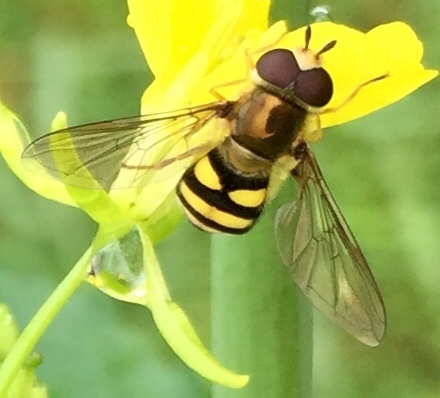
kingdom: Animalia
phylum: Arthropoda
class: Insecta
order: Diptera
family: Syrphidae
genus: Eupeodes
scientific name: Eupeodes
